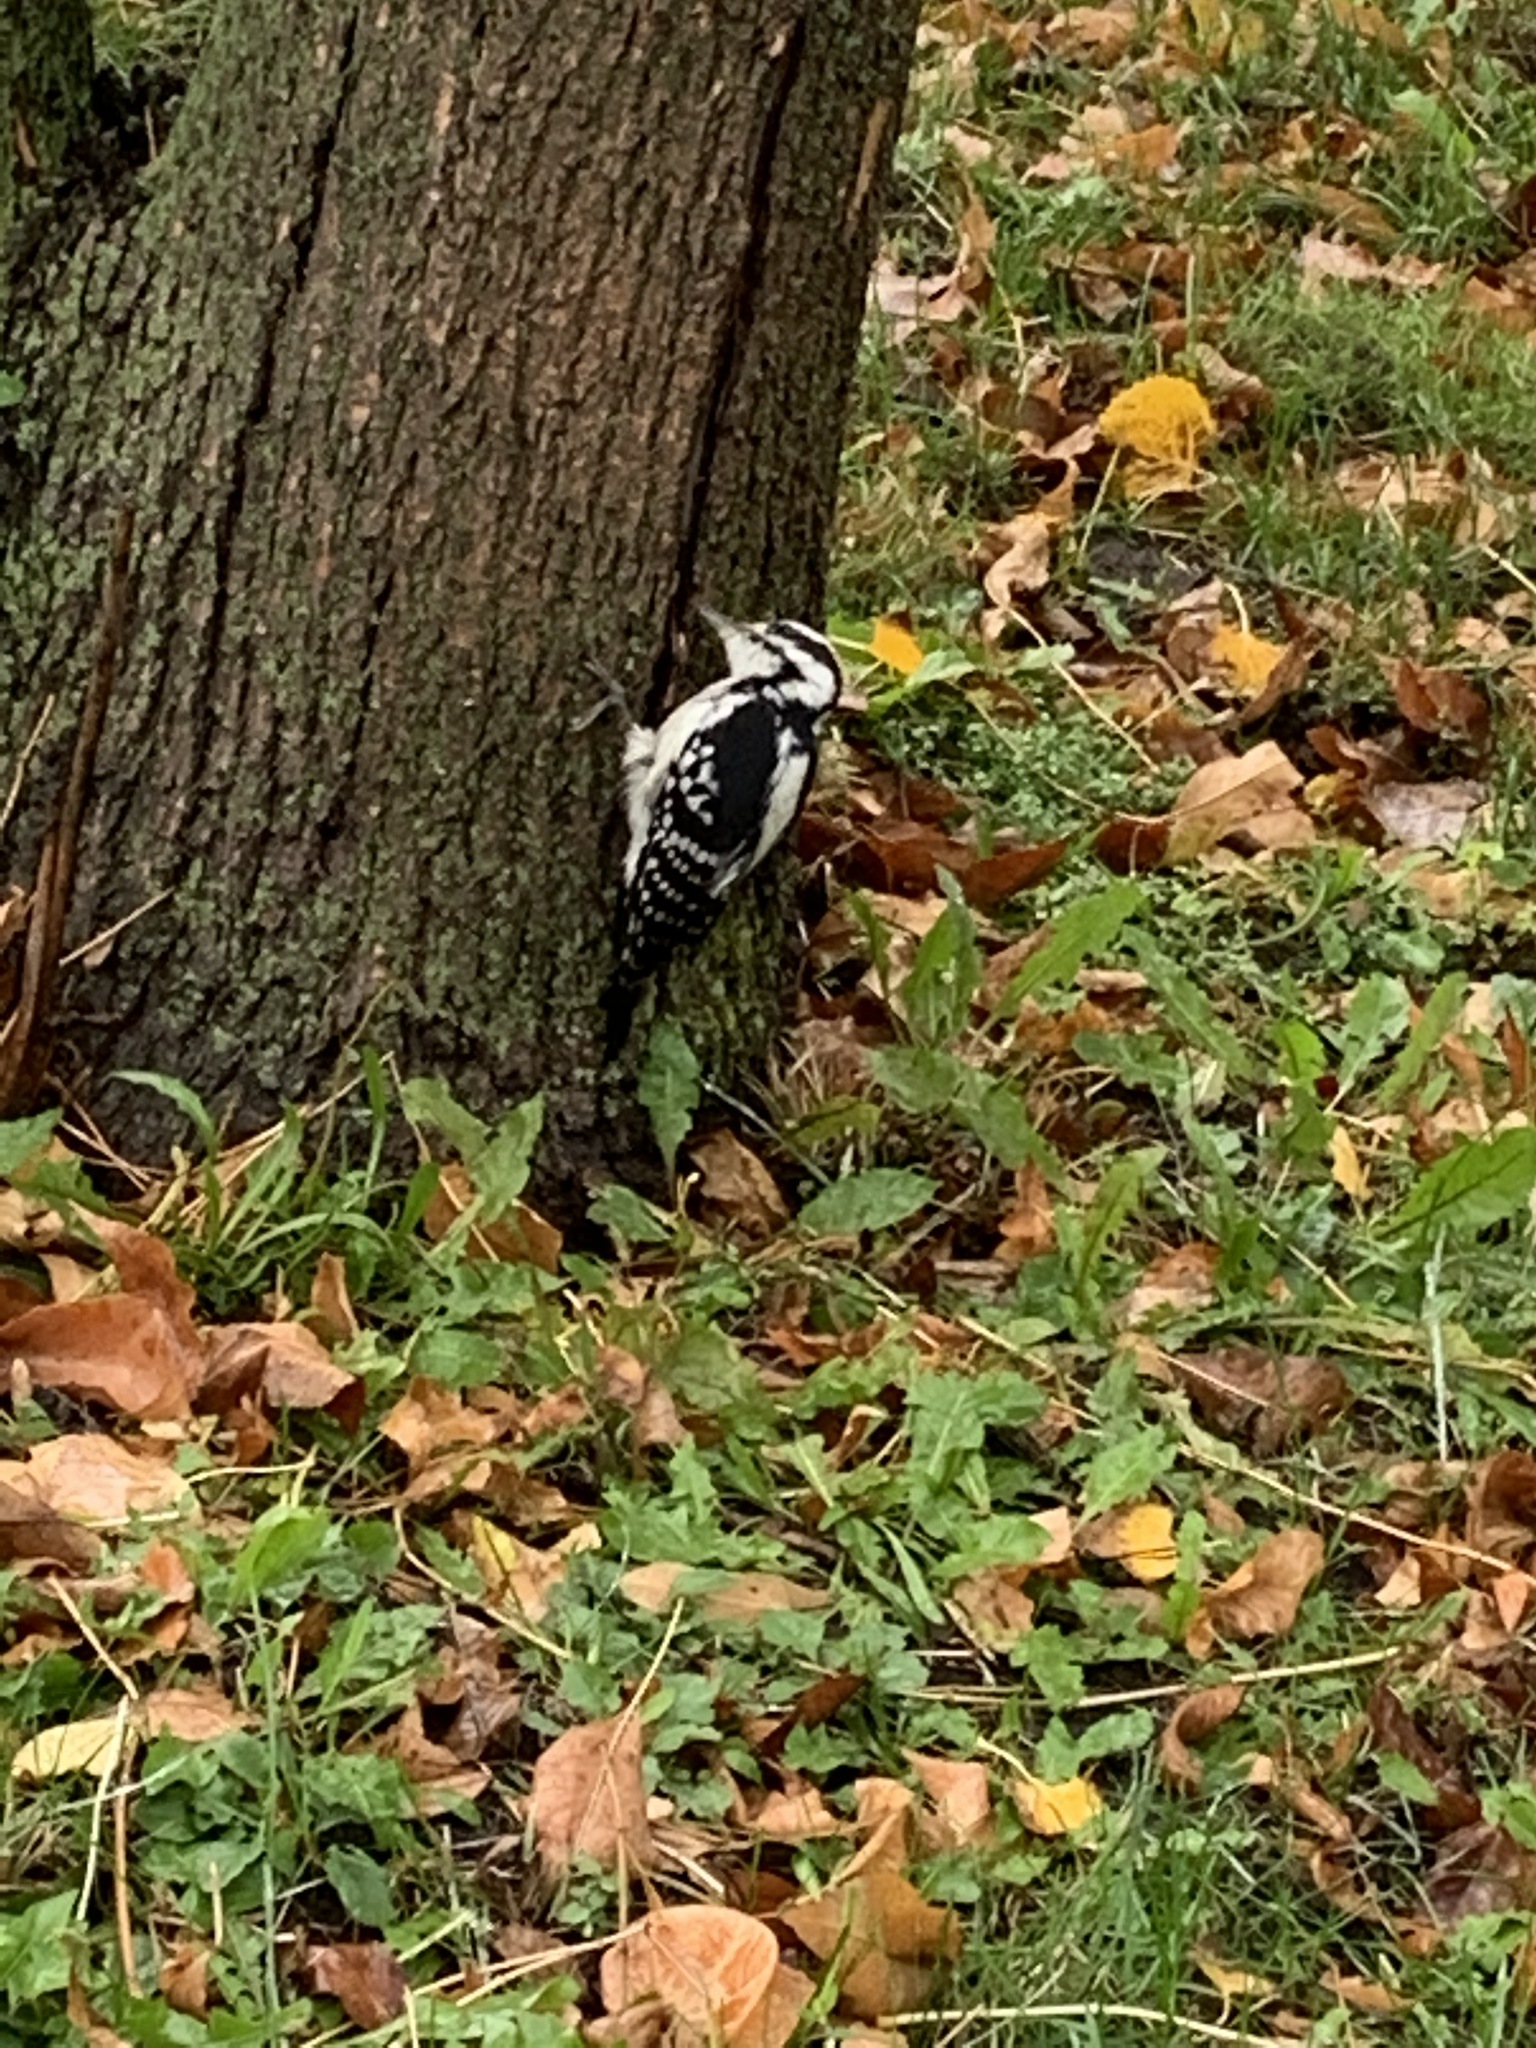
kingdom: Animalia
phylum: Chordata
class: Aves
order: Piciformes
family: Picidae
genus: Leuconotopicus
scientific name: Leuconotopicus villosus
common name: Hairy woodpecker
